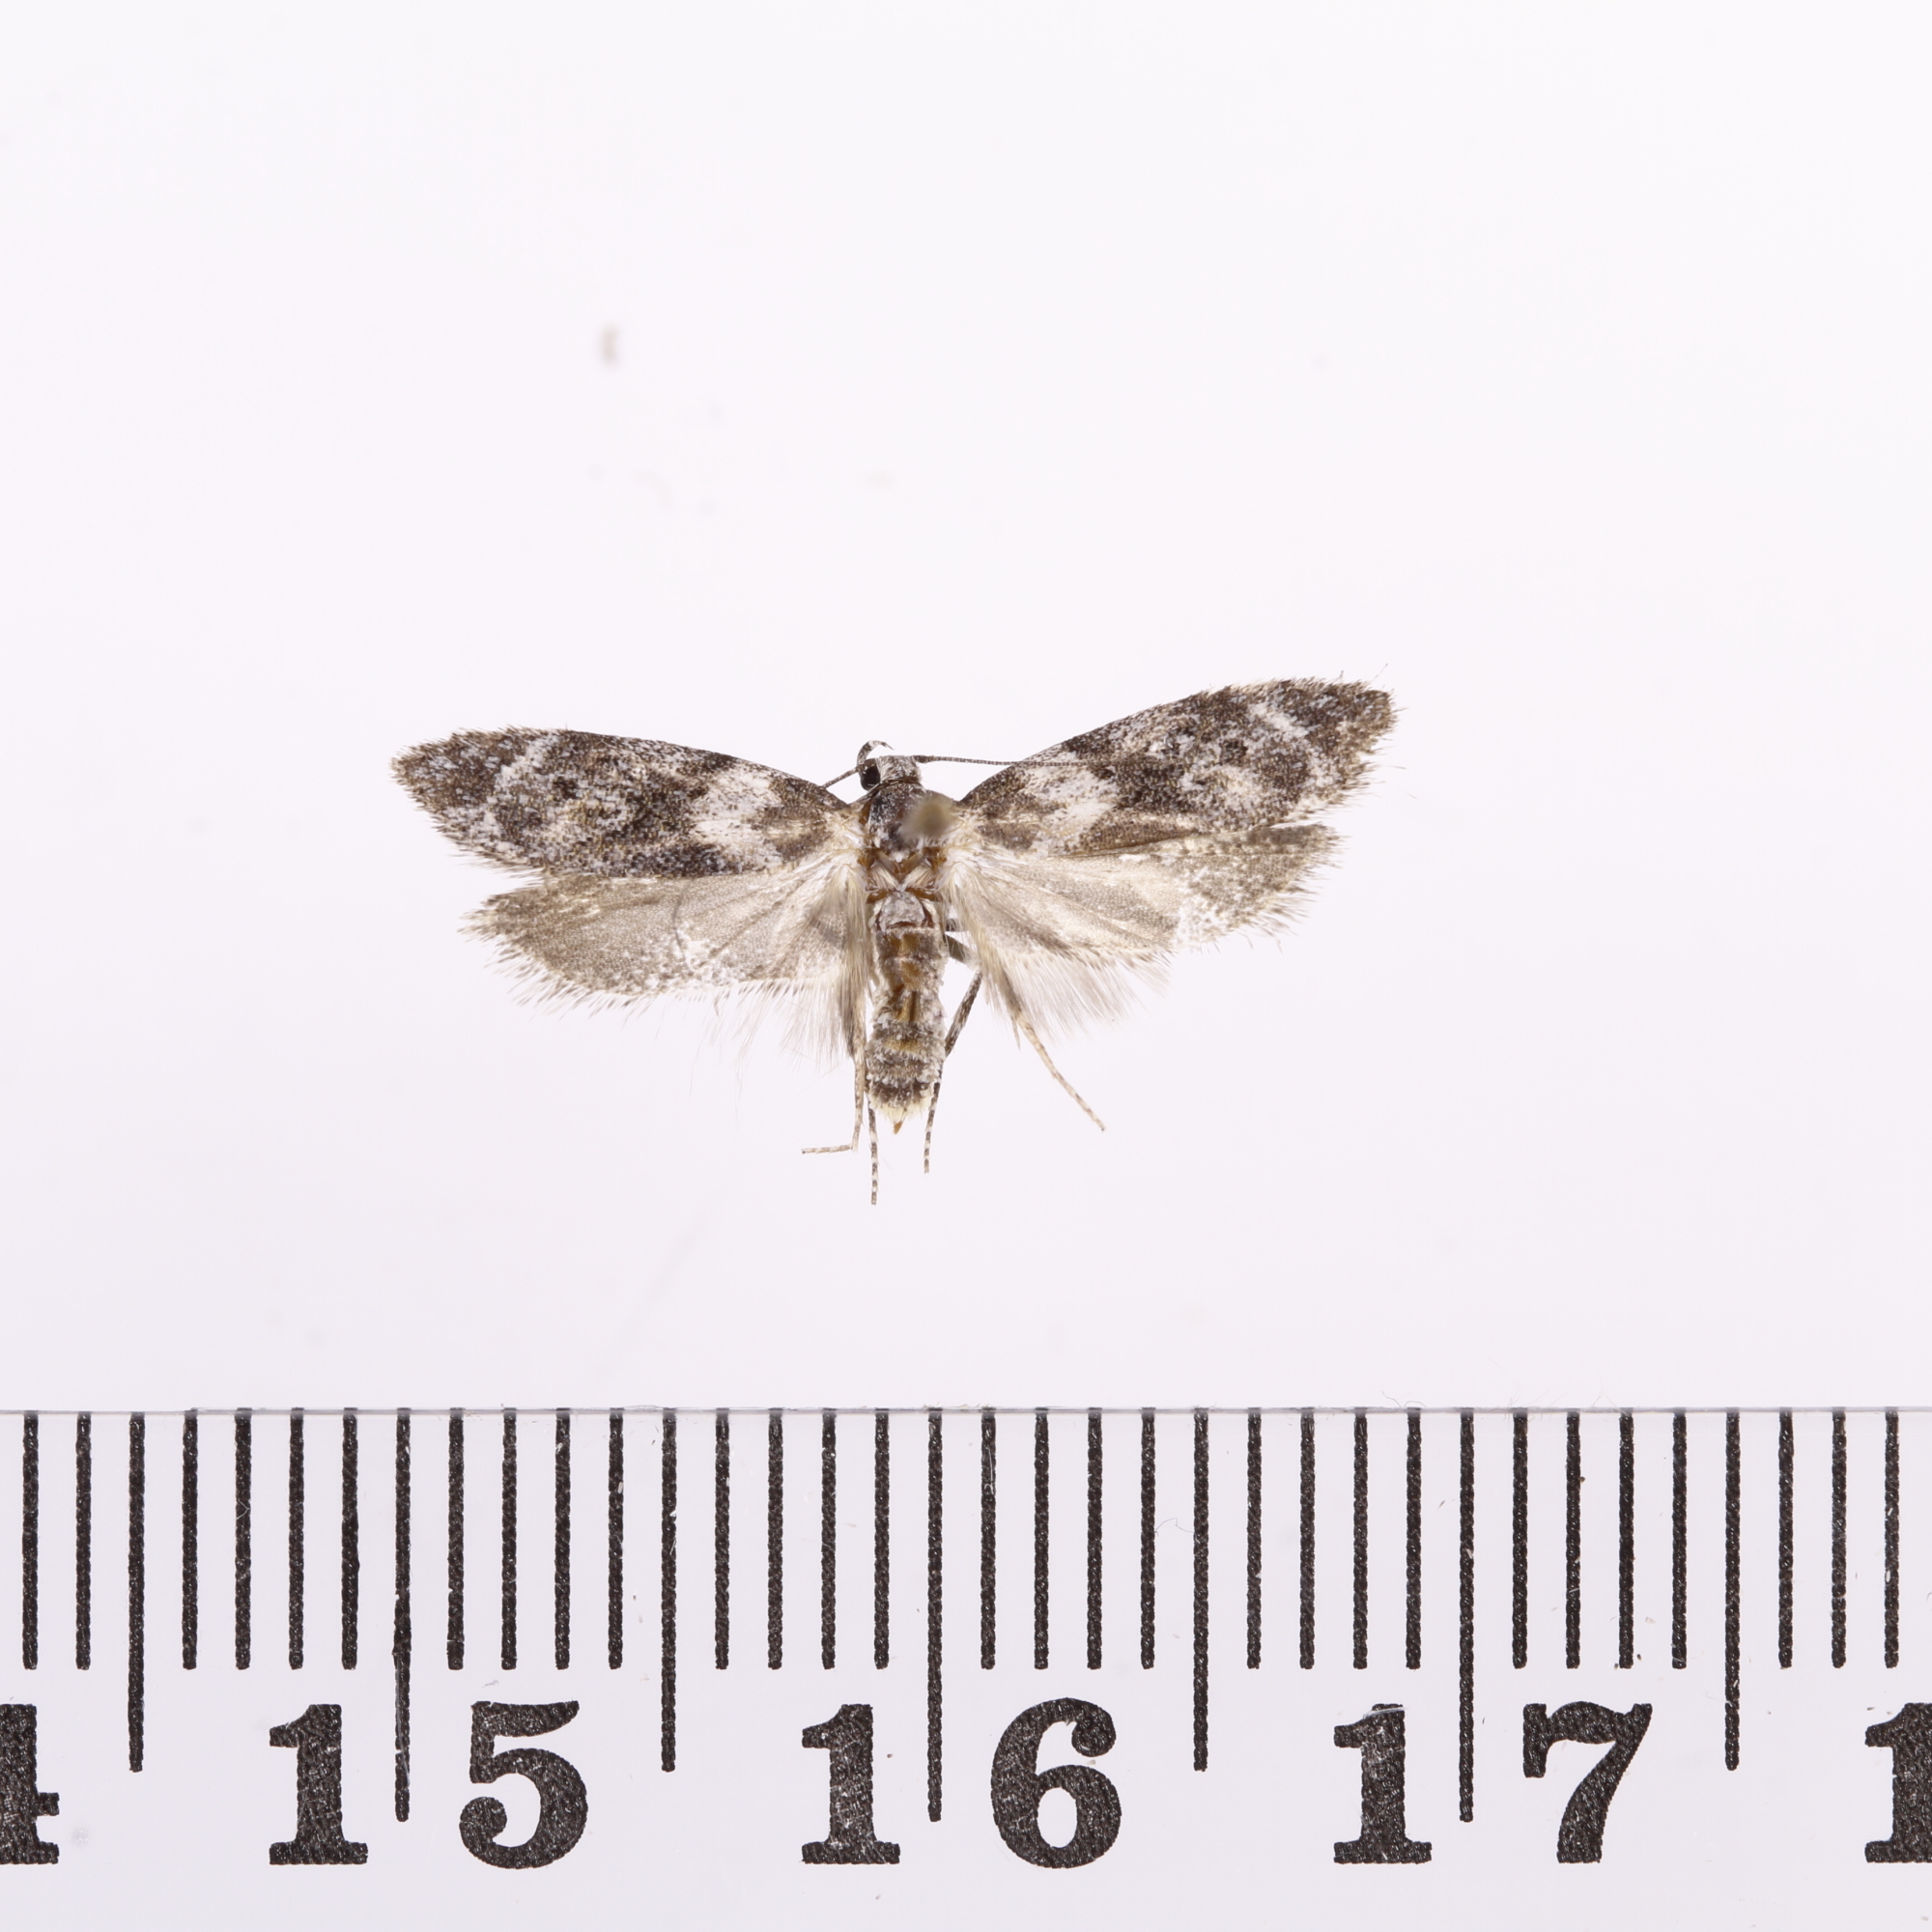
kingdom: Animalia
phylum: Arthropoda
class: Insecta
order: Lepidoptera
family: Oecophoridae
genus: Izatha
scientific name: Izatha convulsella
